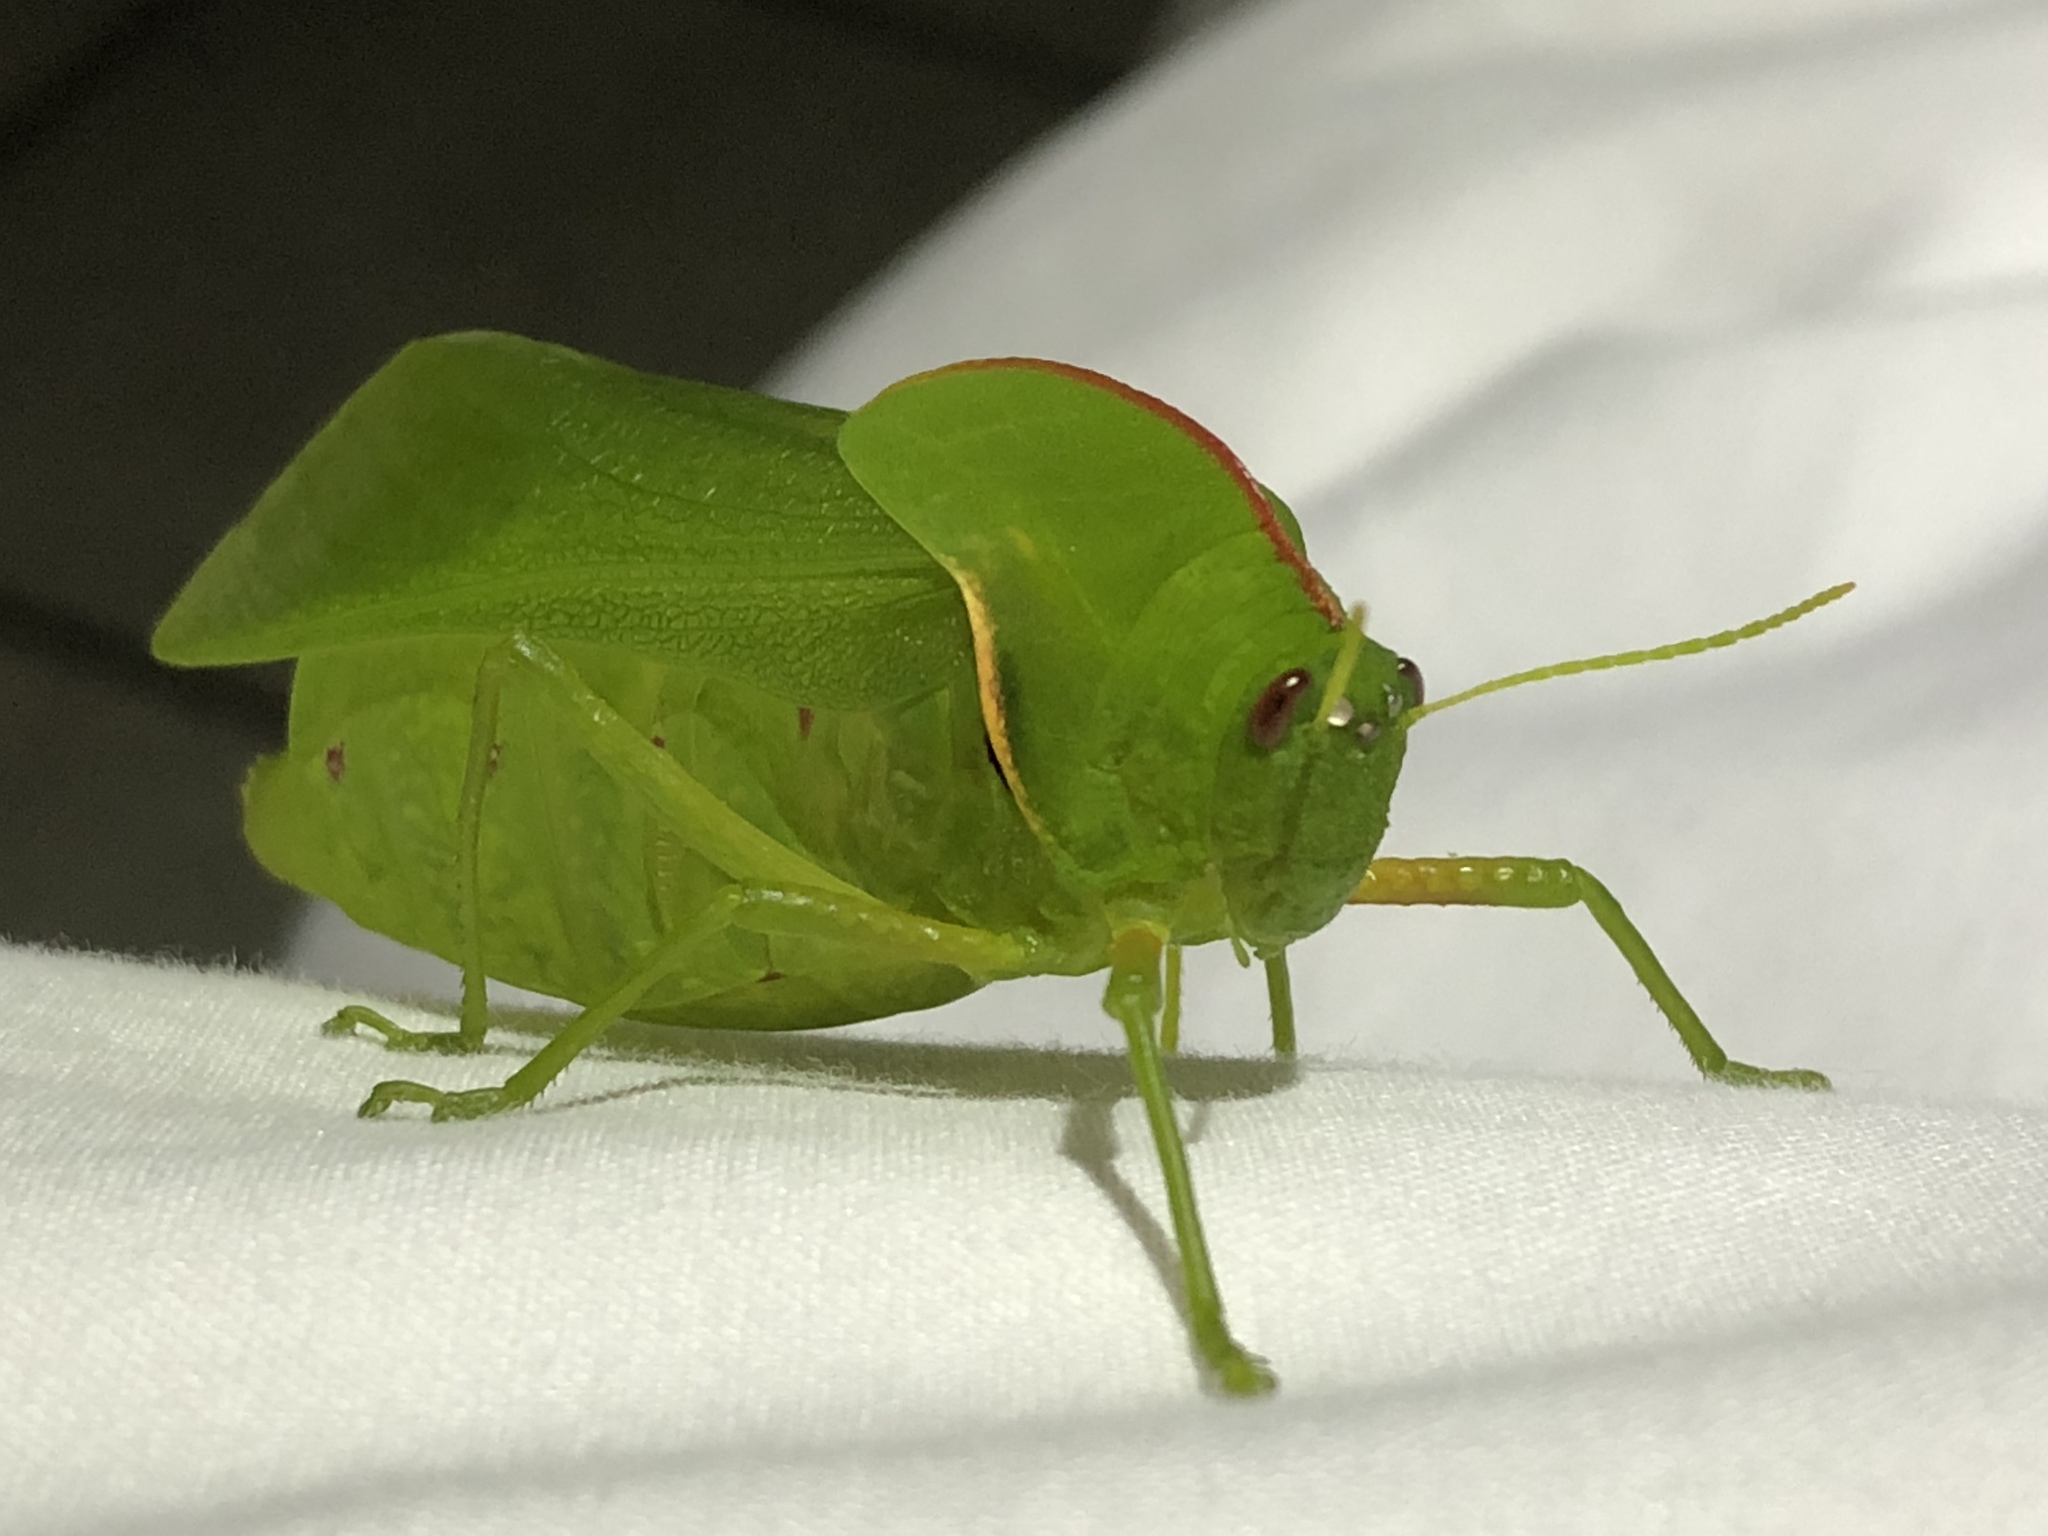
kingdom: Animalia
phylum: Arthropoda
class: Insecta
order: Orthoptera
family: Pneumoridae
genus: Bullacris
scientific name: Bullacris discolor
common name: Bladder grasshopper
